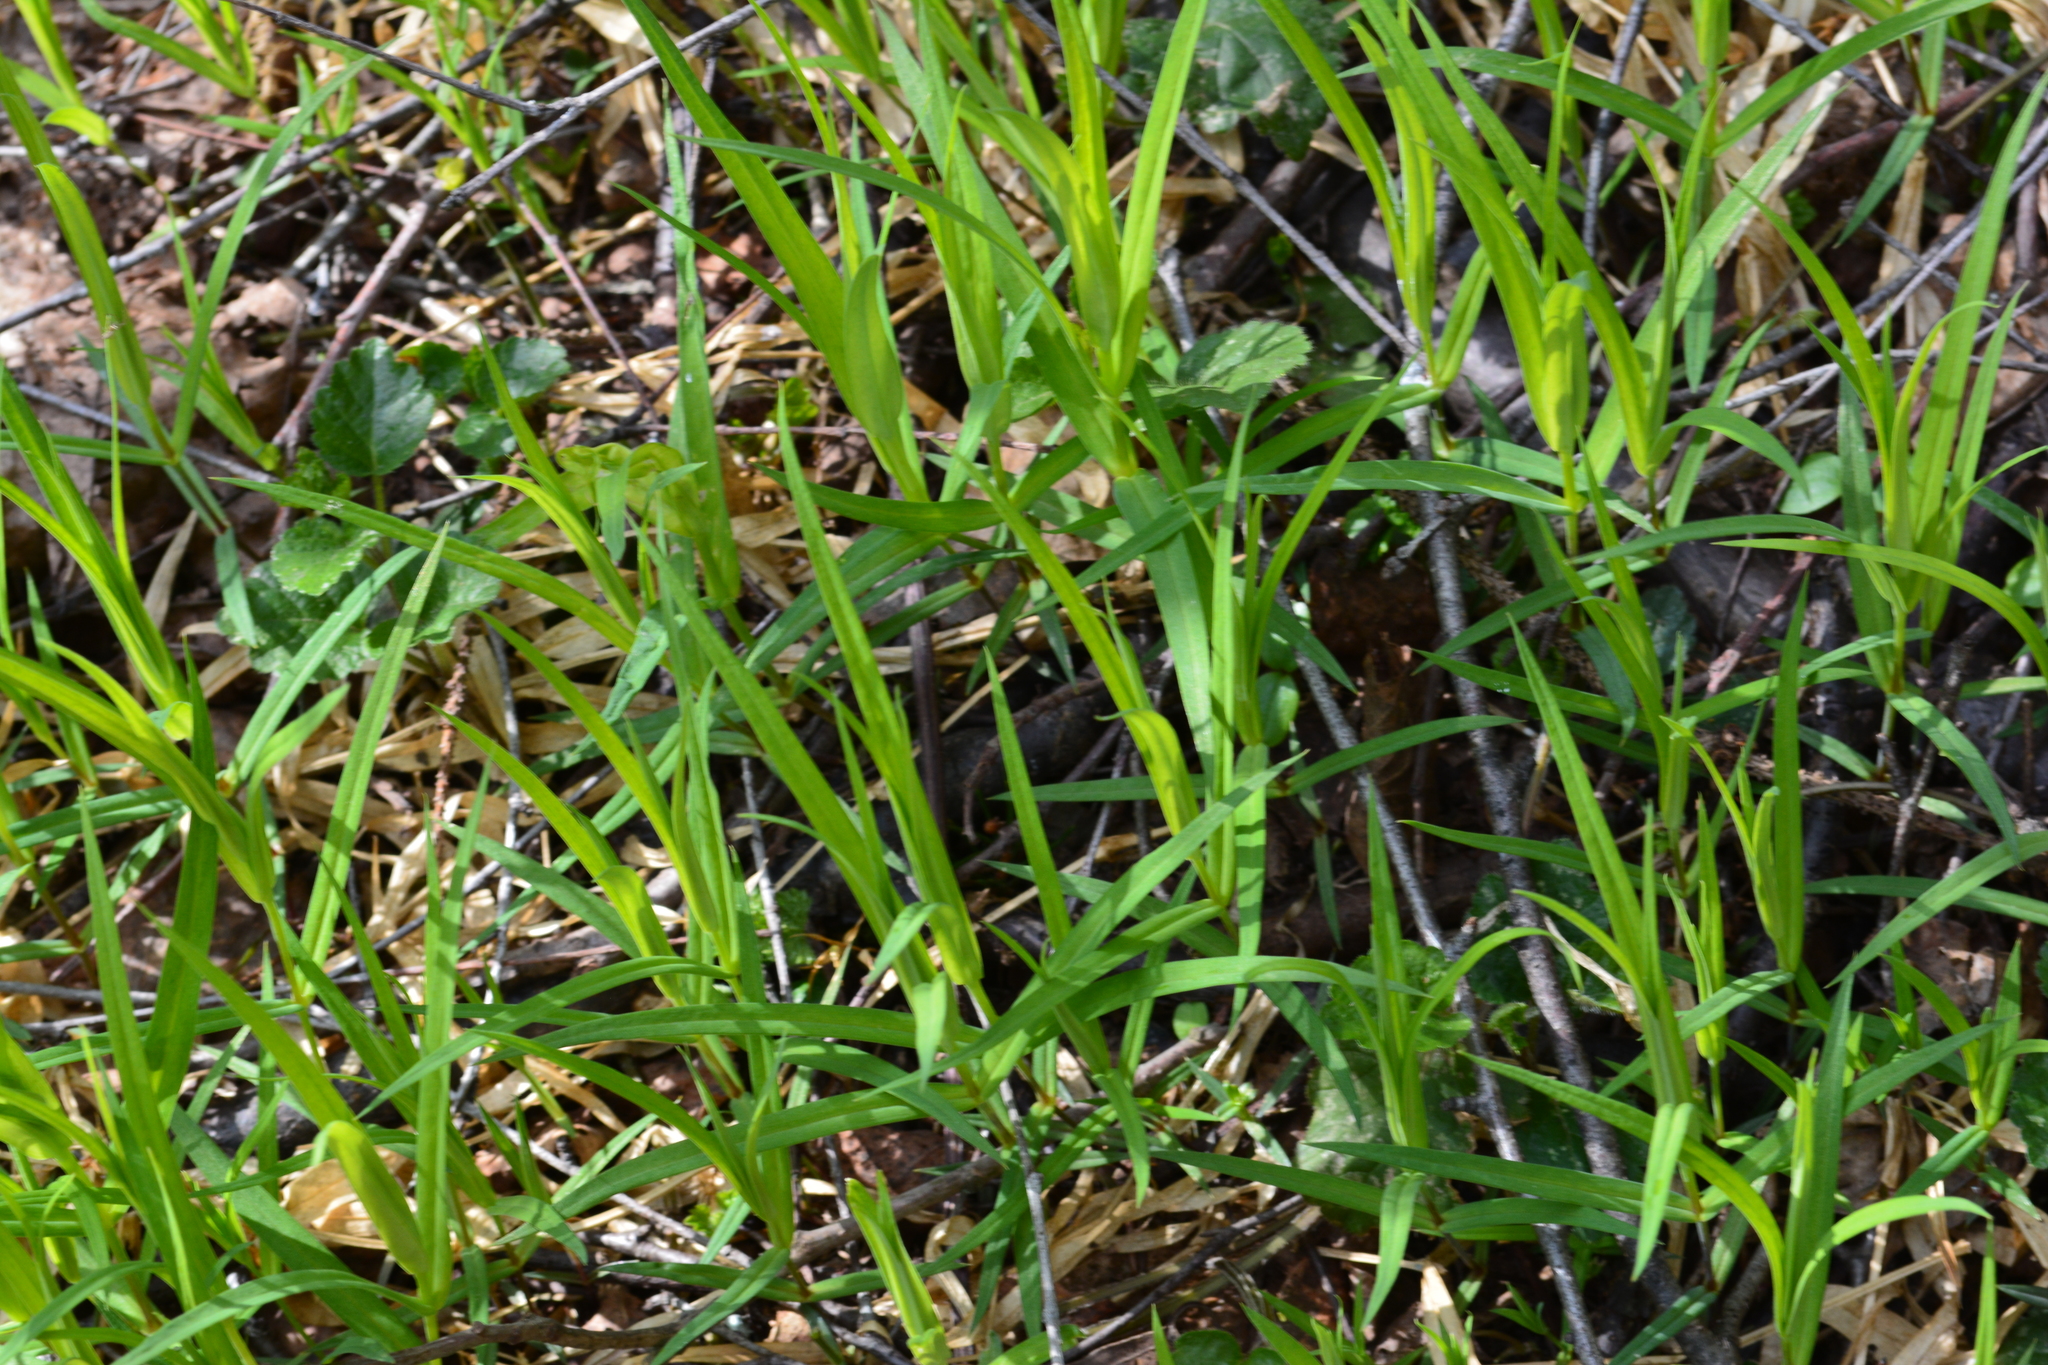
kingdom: Plantae
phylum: Tracheophyta
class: Magnoliopsida
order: Caryophyllales
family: Caryophyllaceae
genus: Rabelera
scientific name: Rabelera holostea
